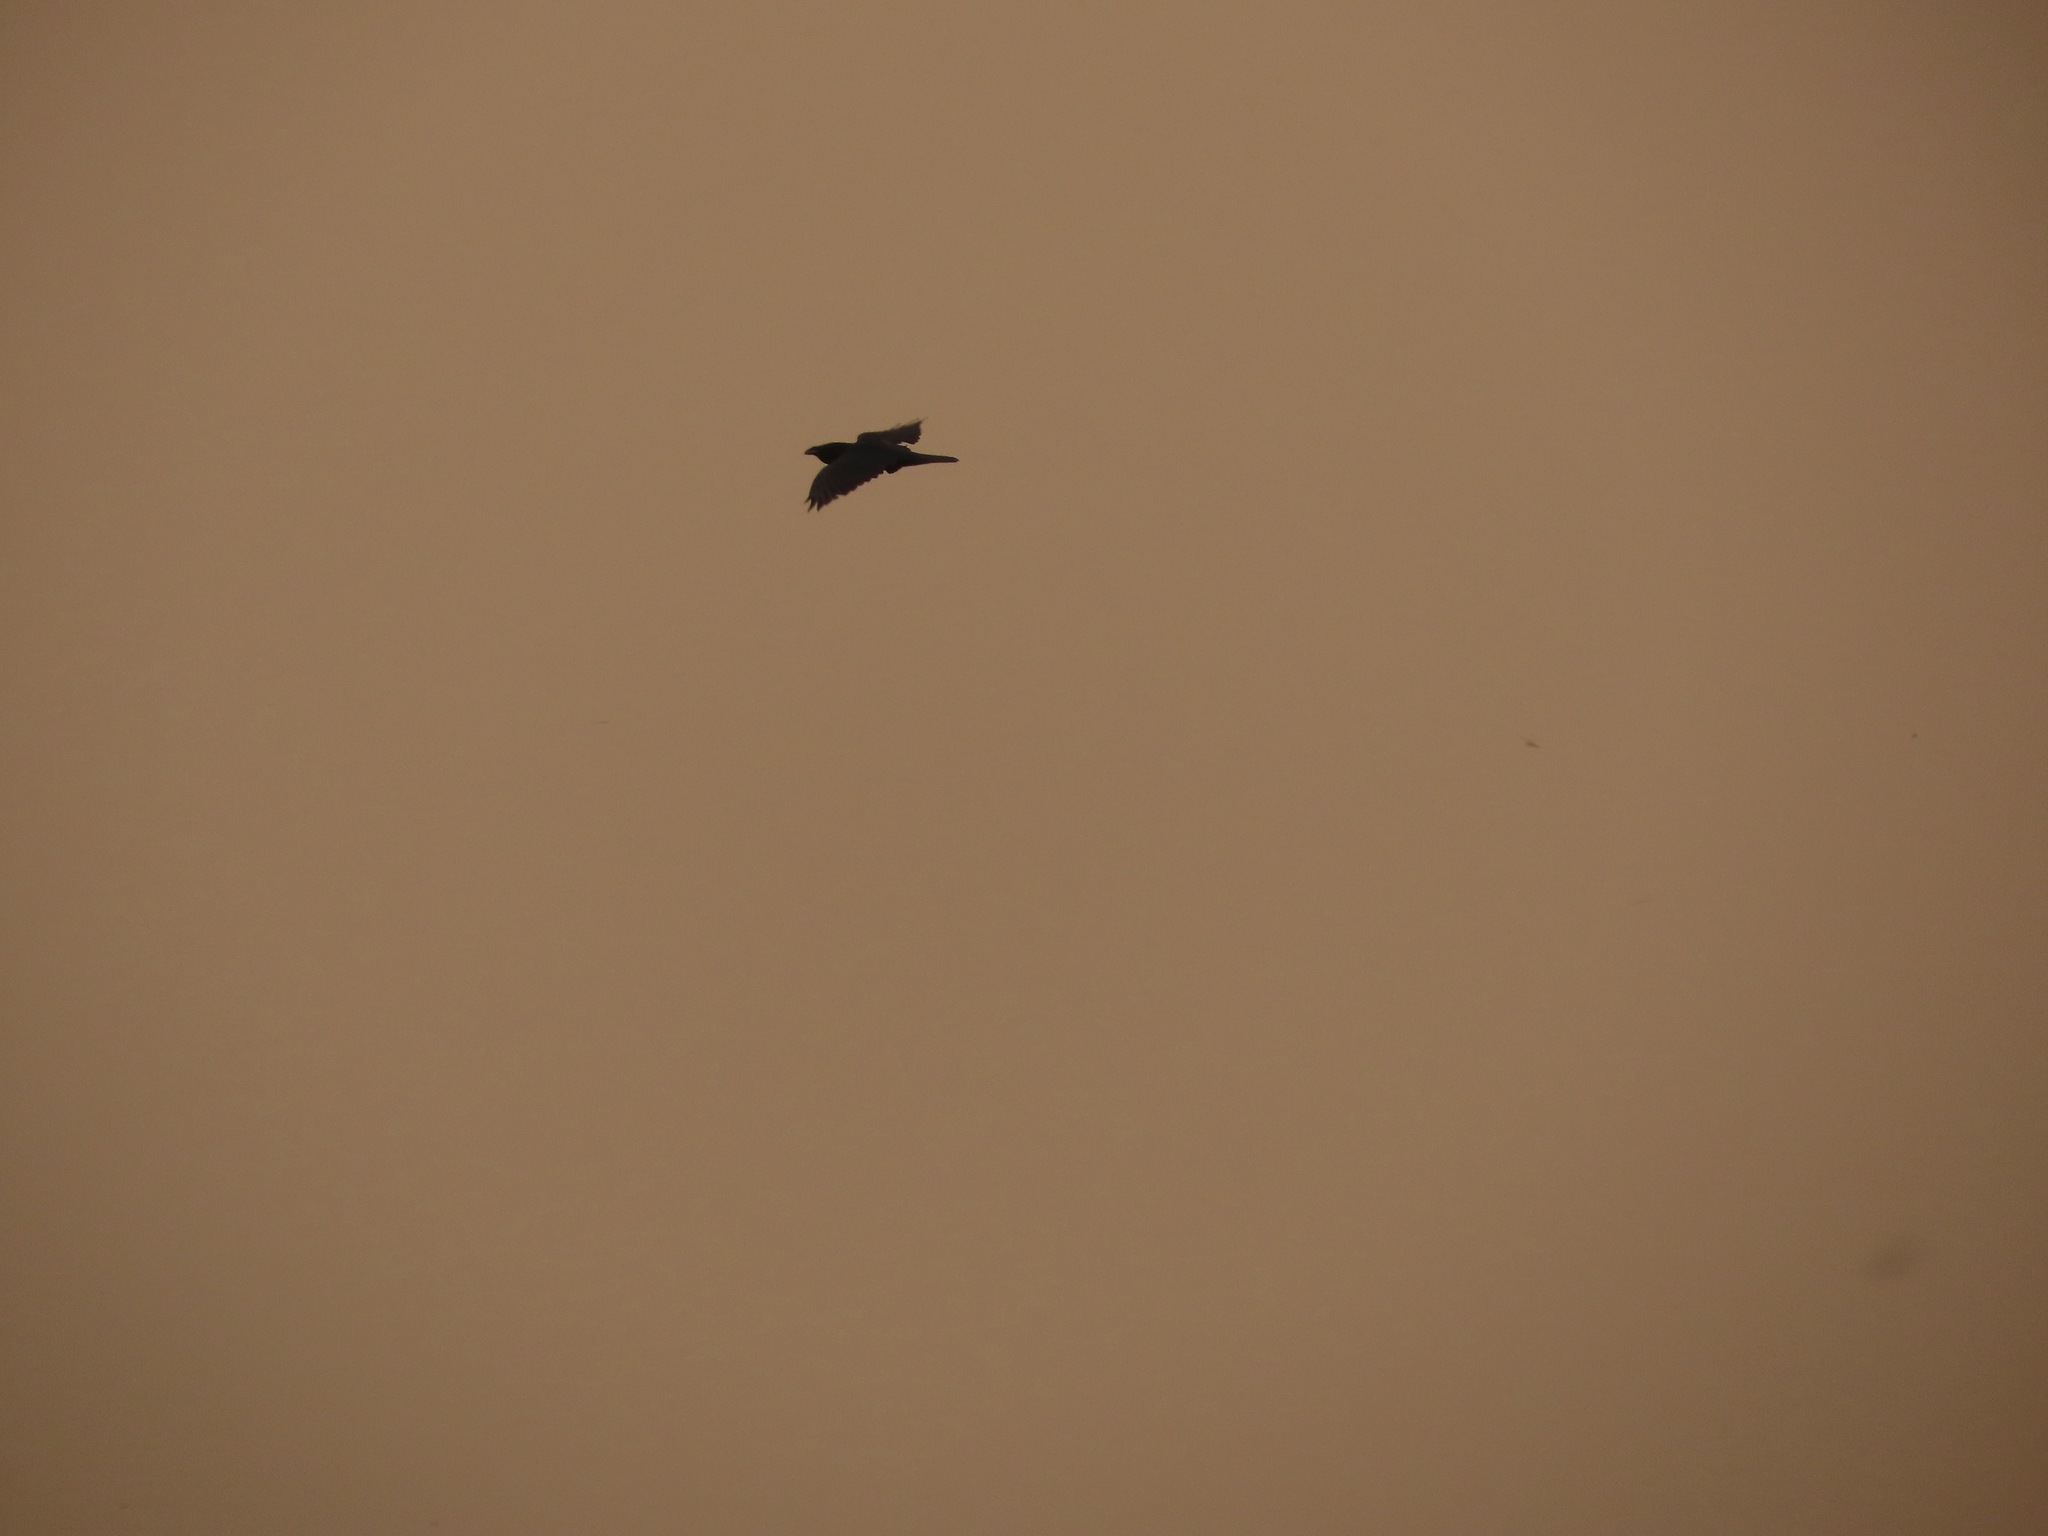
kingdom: Animalia
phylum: Chordata
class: Aves
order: Passeriformes
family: Corvidae
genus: Corvus
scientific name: Corvus corax
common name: Common raven
